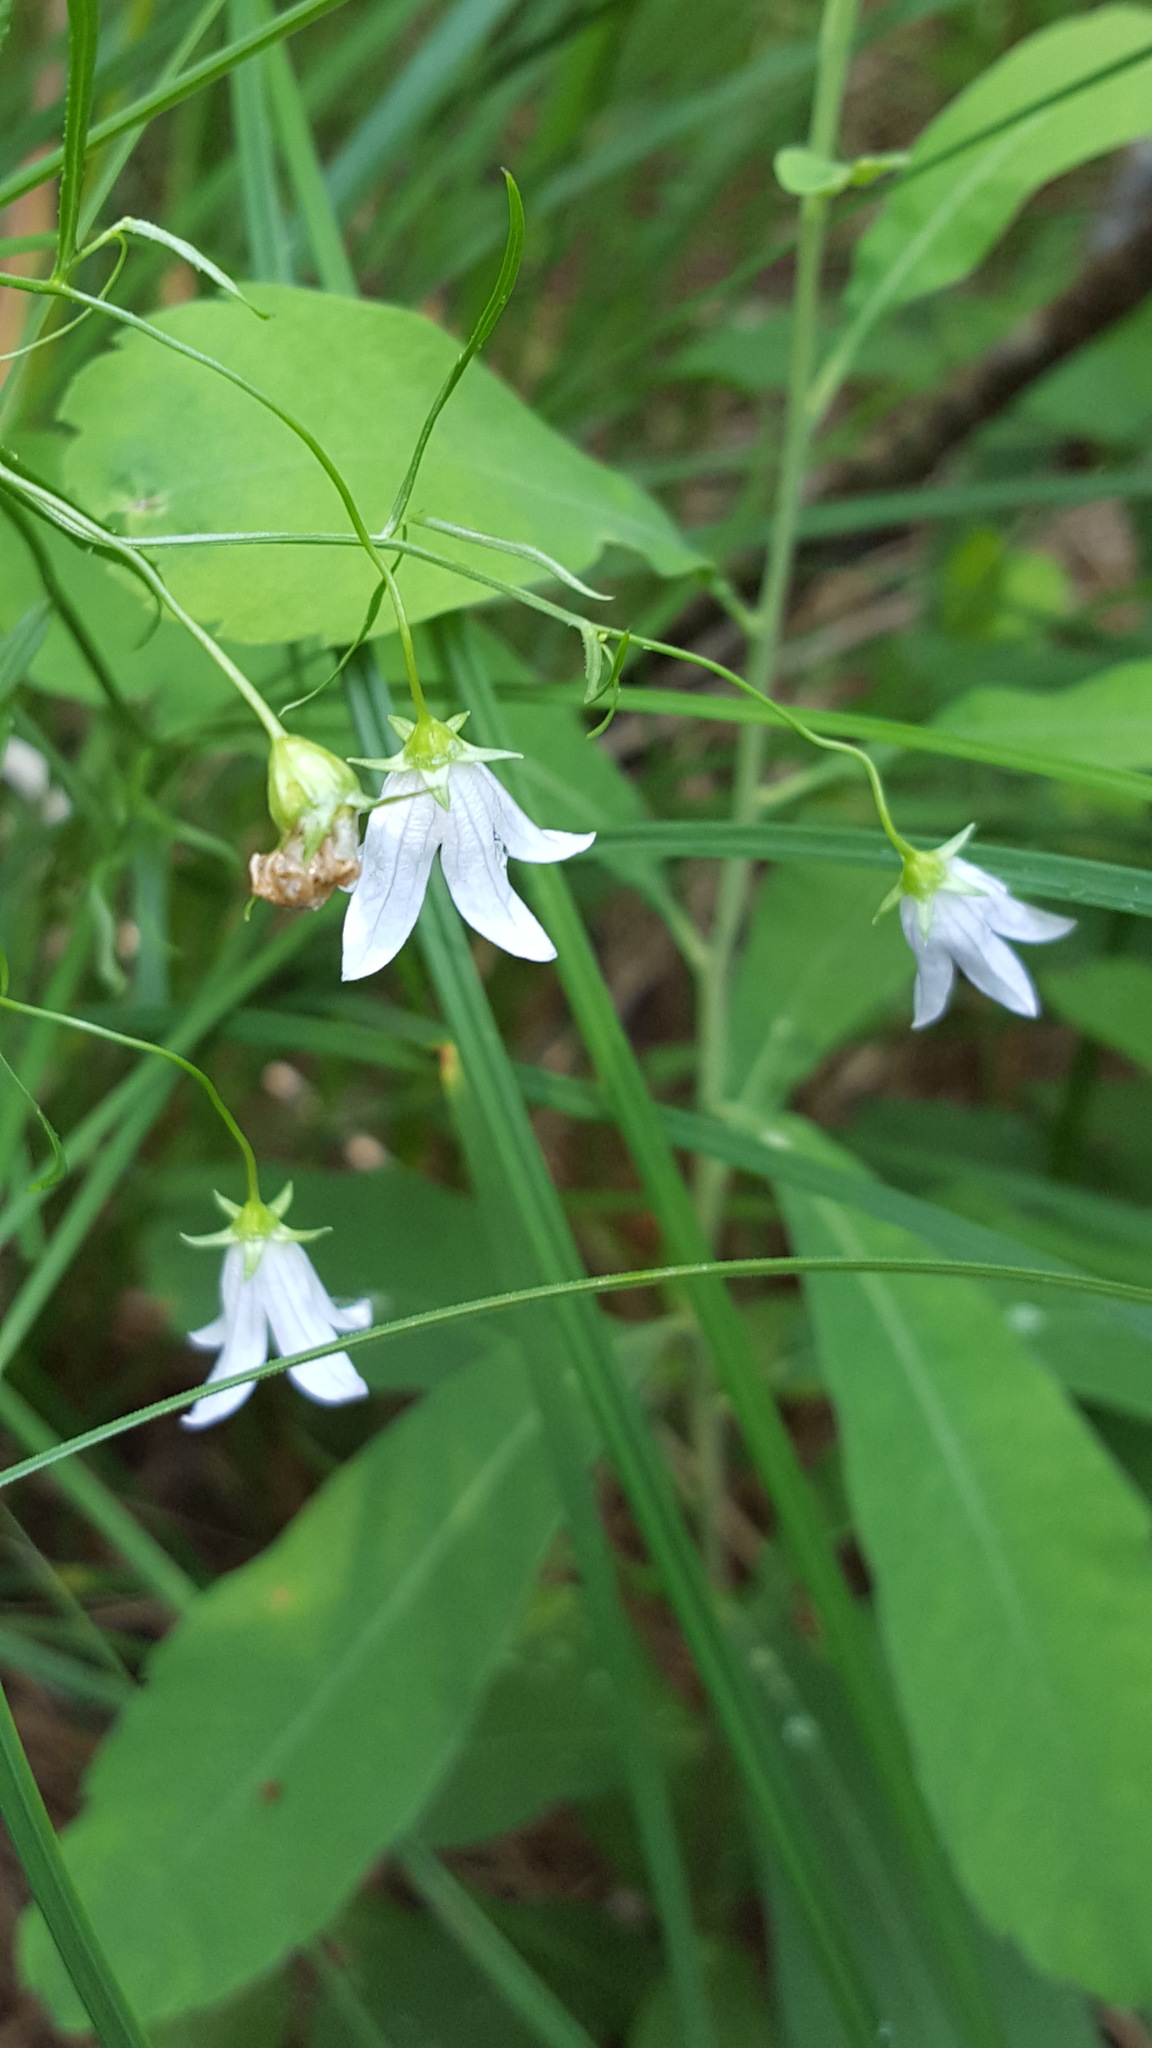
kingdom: Plantae
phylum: Tracheophyta
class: Magnoliopsida
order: Asterales
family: Campanulaceae
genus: Palustricodon
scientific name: Palustricodon aparinoides
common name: Bedstraw bellflower
